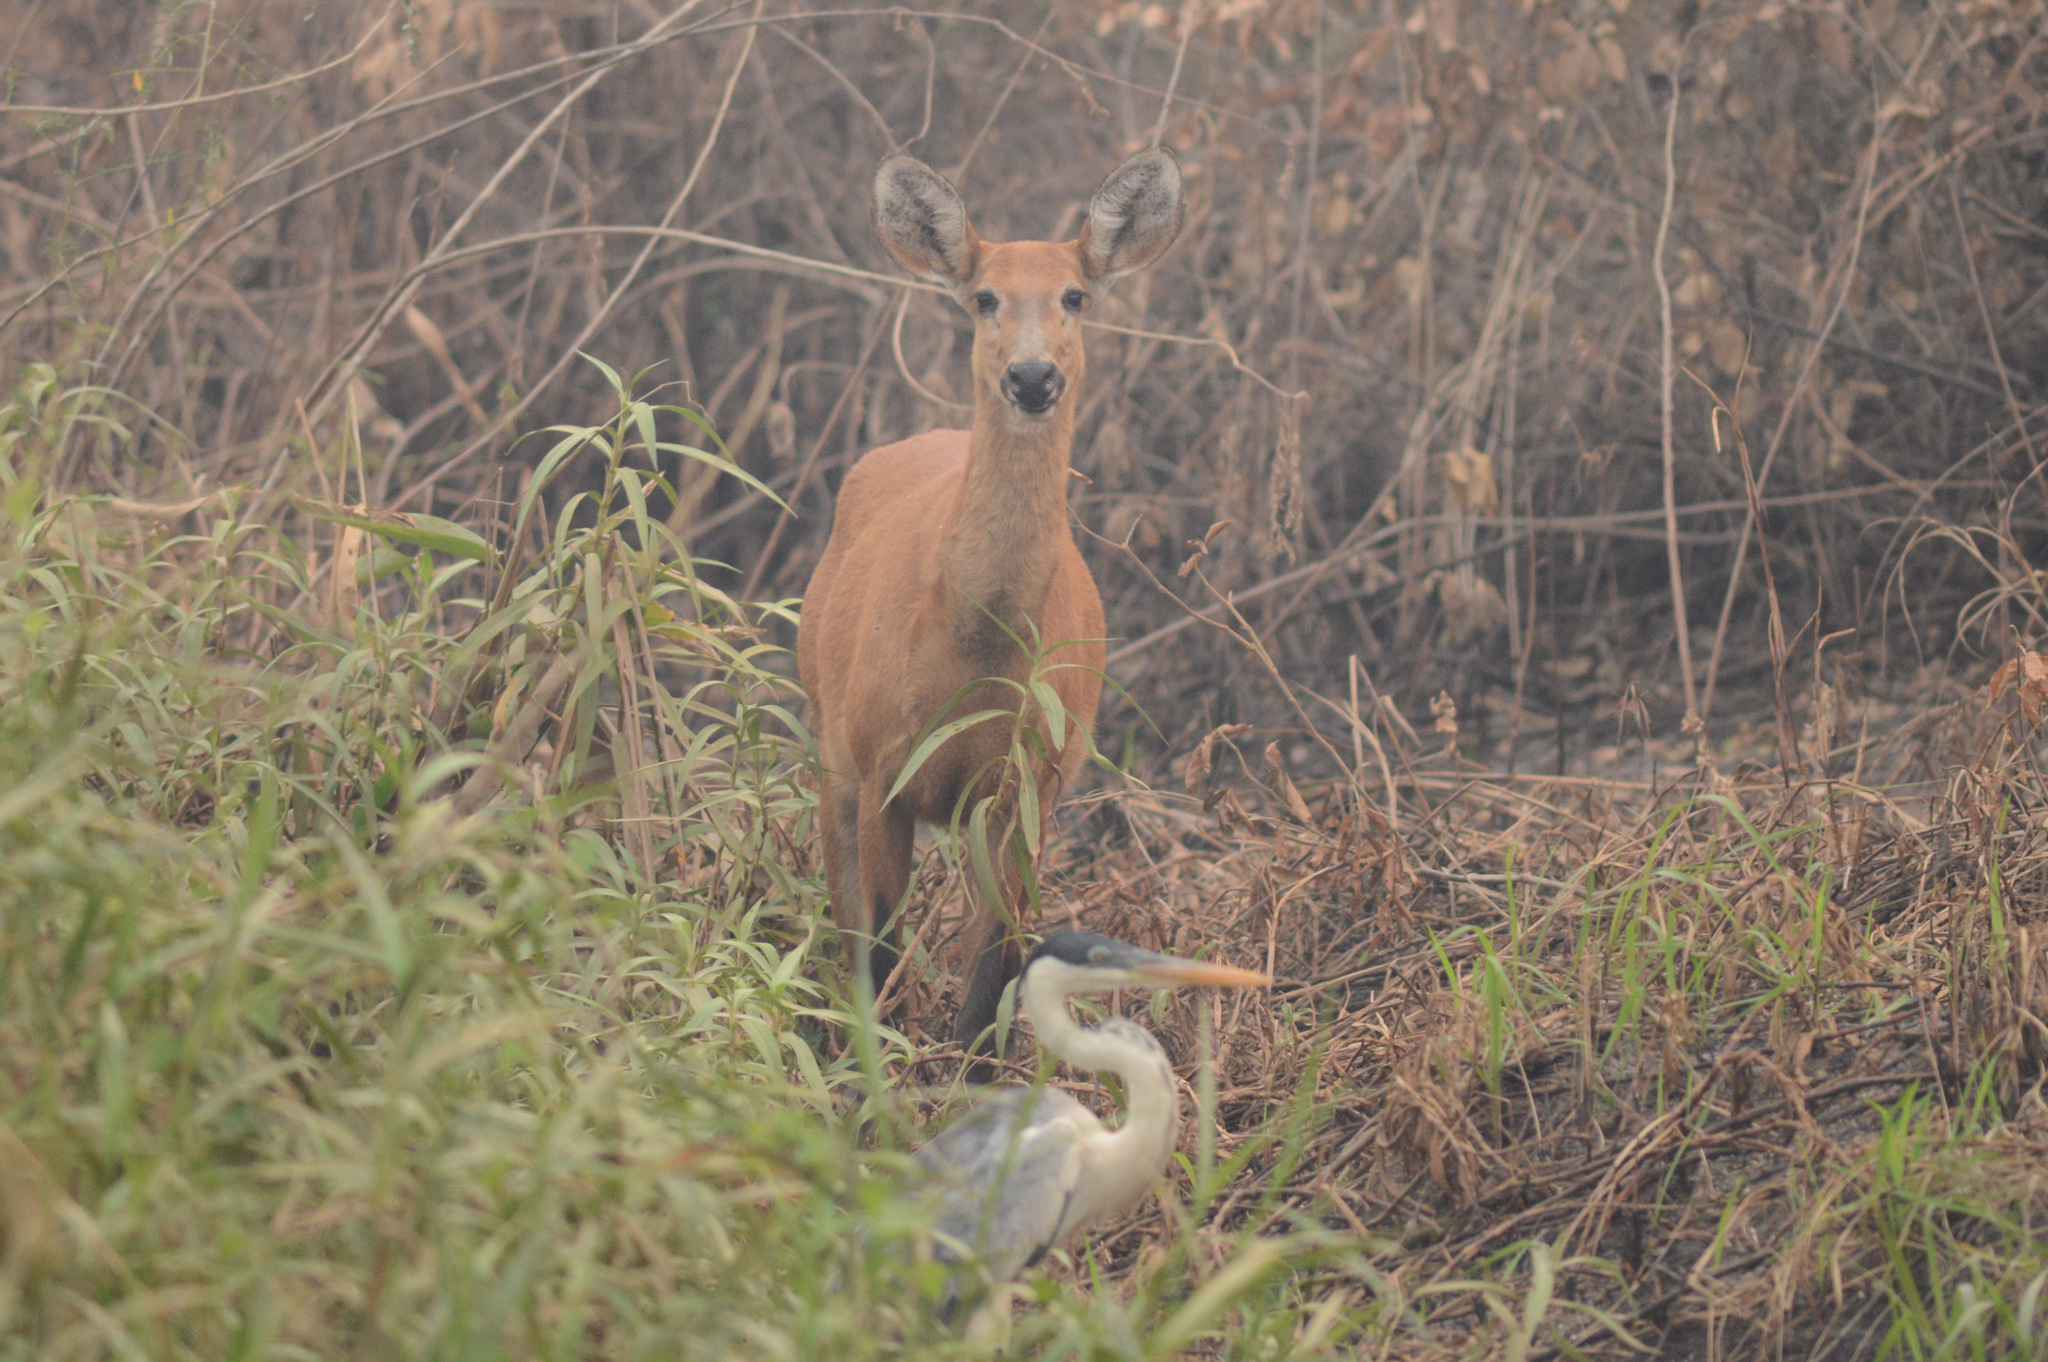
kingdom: Animalia
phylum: Chordata
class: Mammalia
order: Artiodactyla
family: Cervidae
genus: Blastocerus
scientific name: Blastocerus dichotomus
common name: Marsh deer
